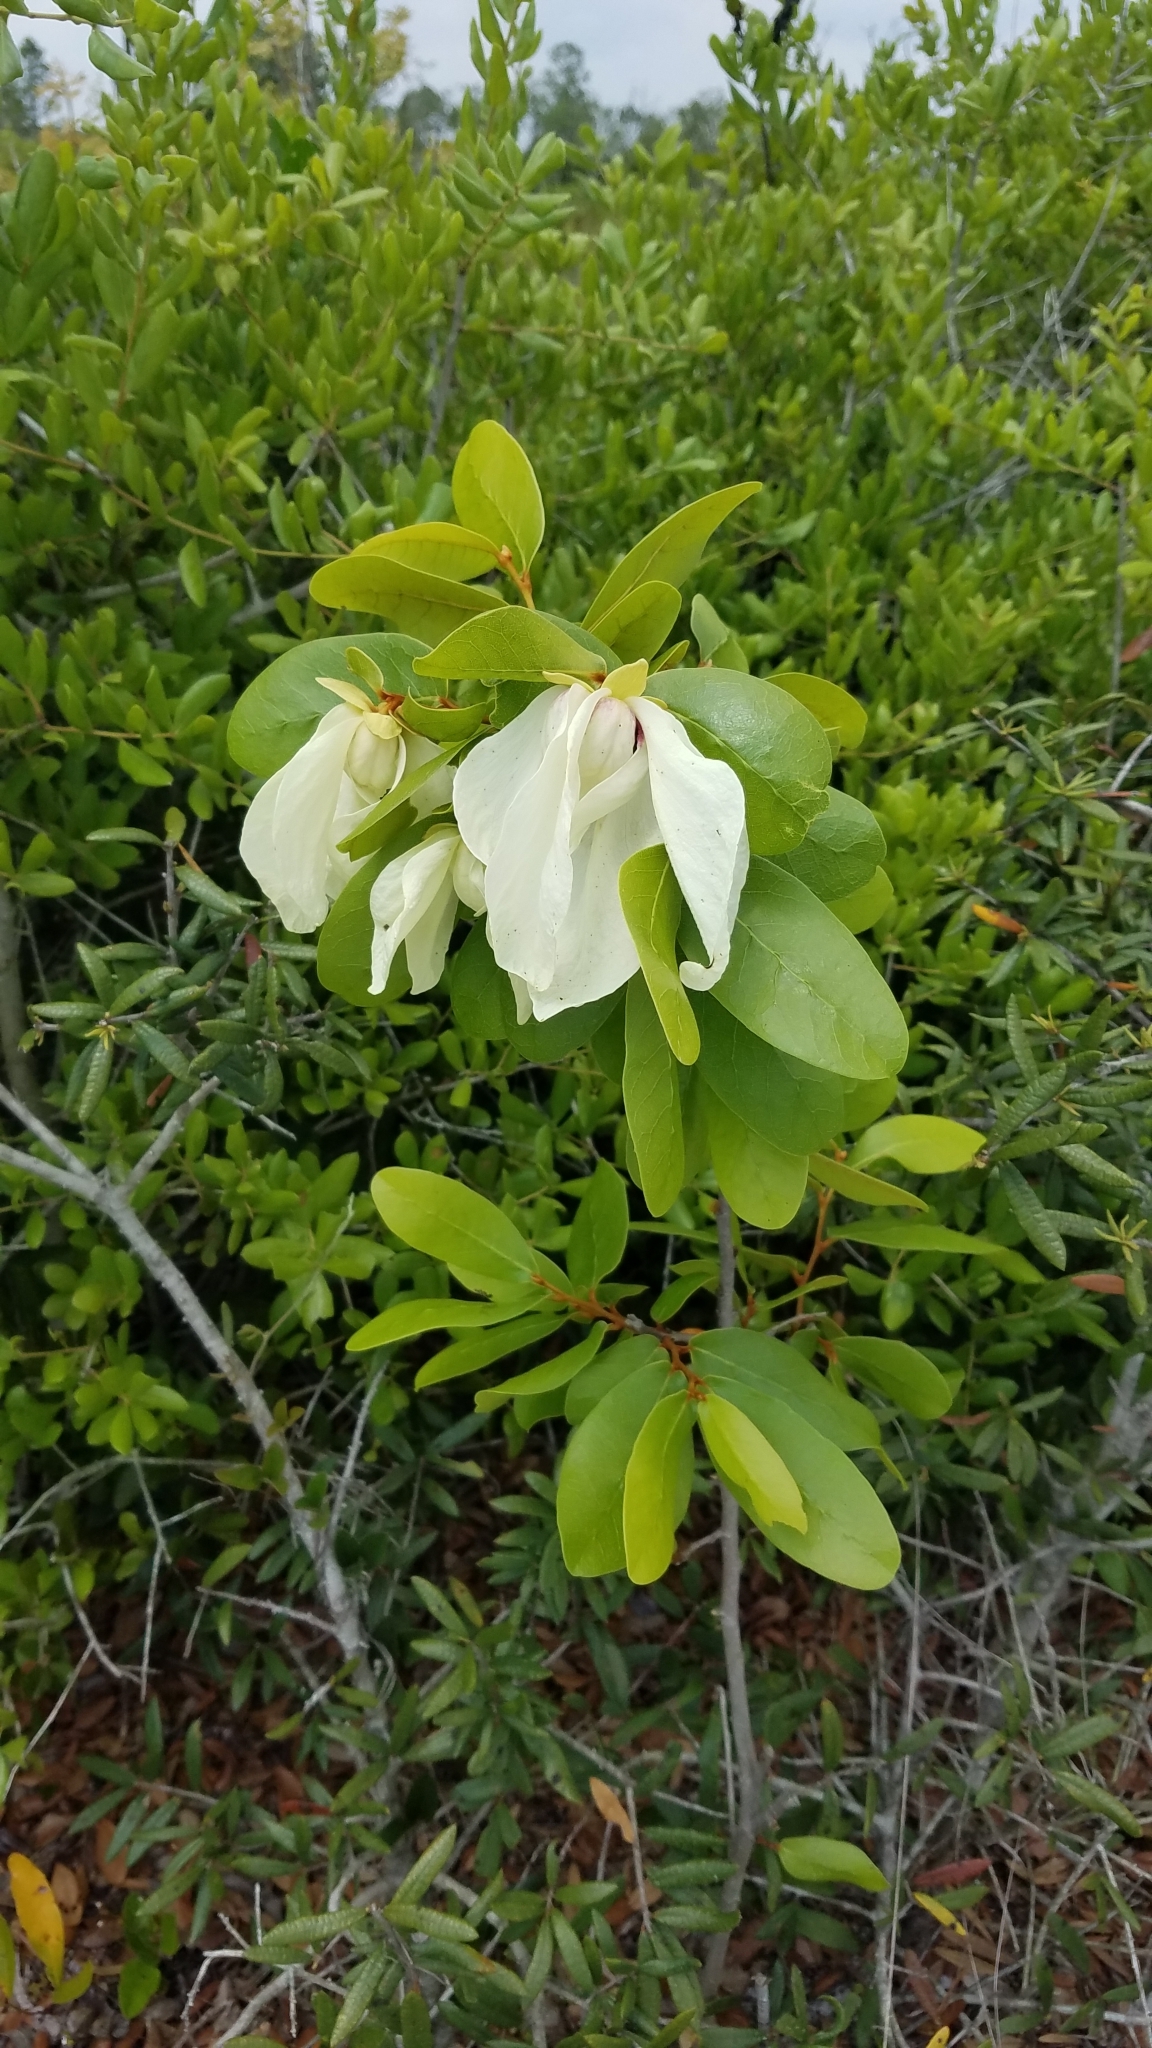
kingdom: Plantae
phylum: Tracheophyta
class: Magnoliopsida
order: Magnoliales
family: Annonaceae
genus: Asimina
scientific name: Asimina obovata
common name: Flag pawpaw
